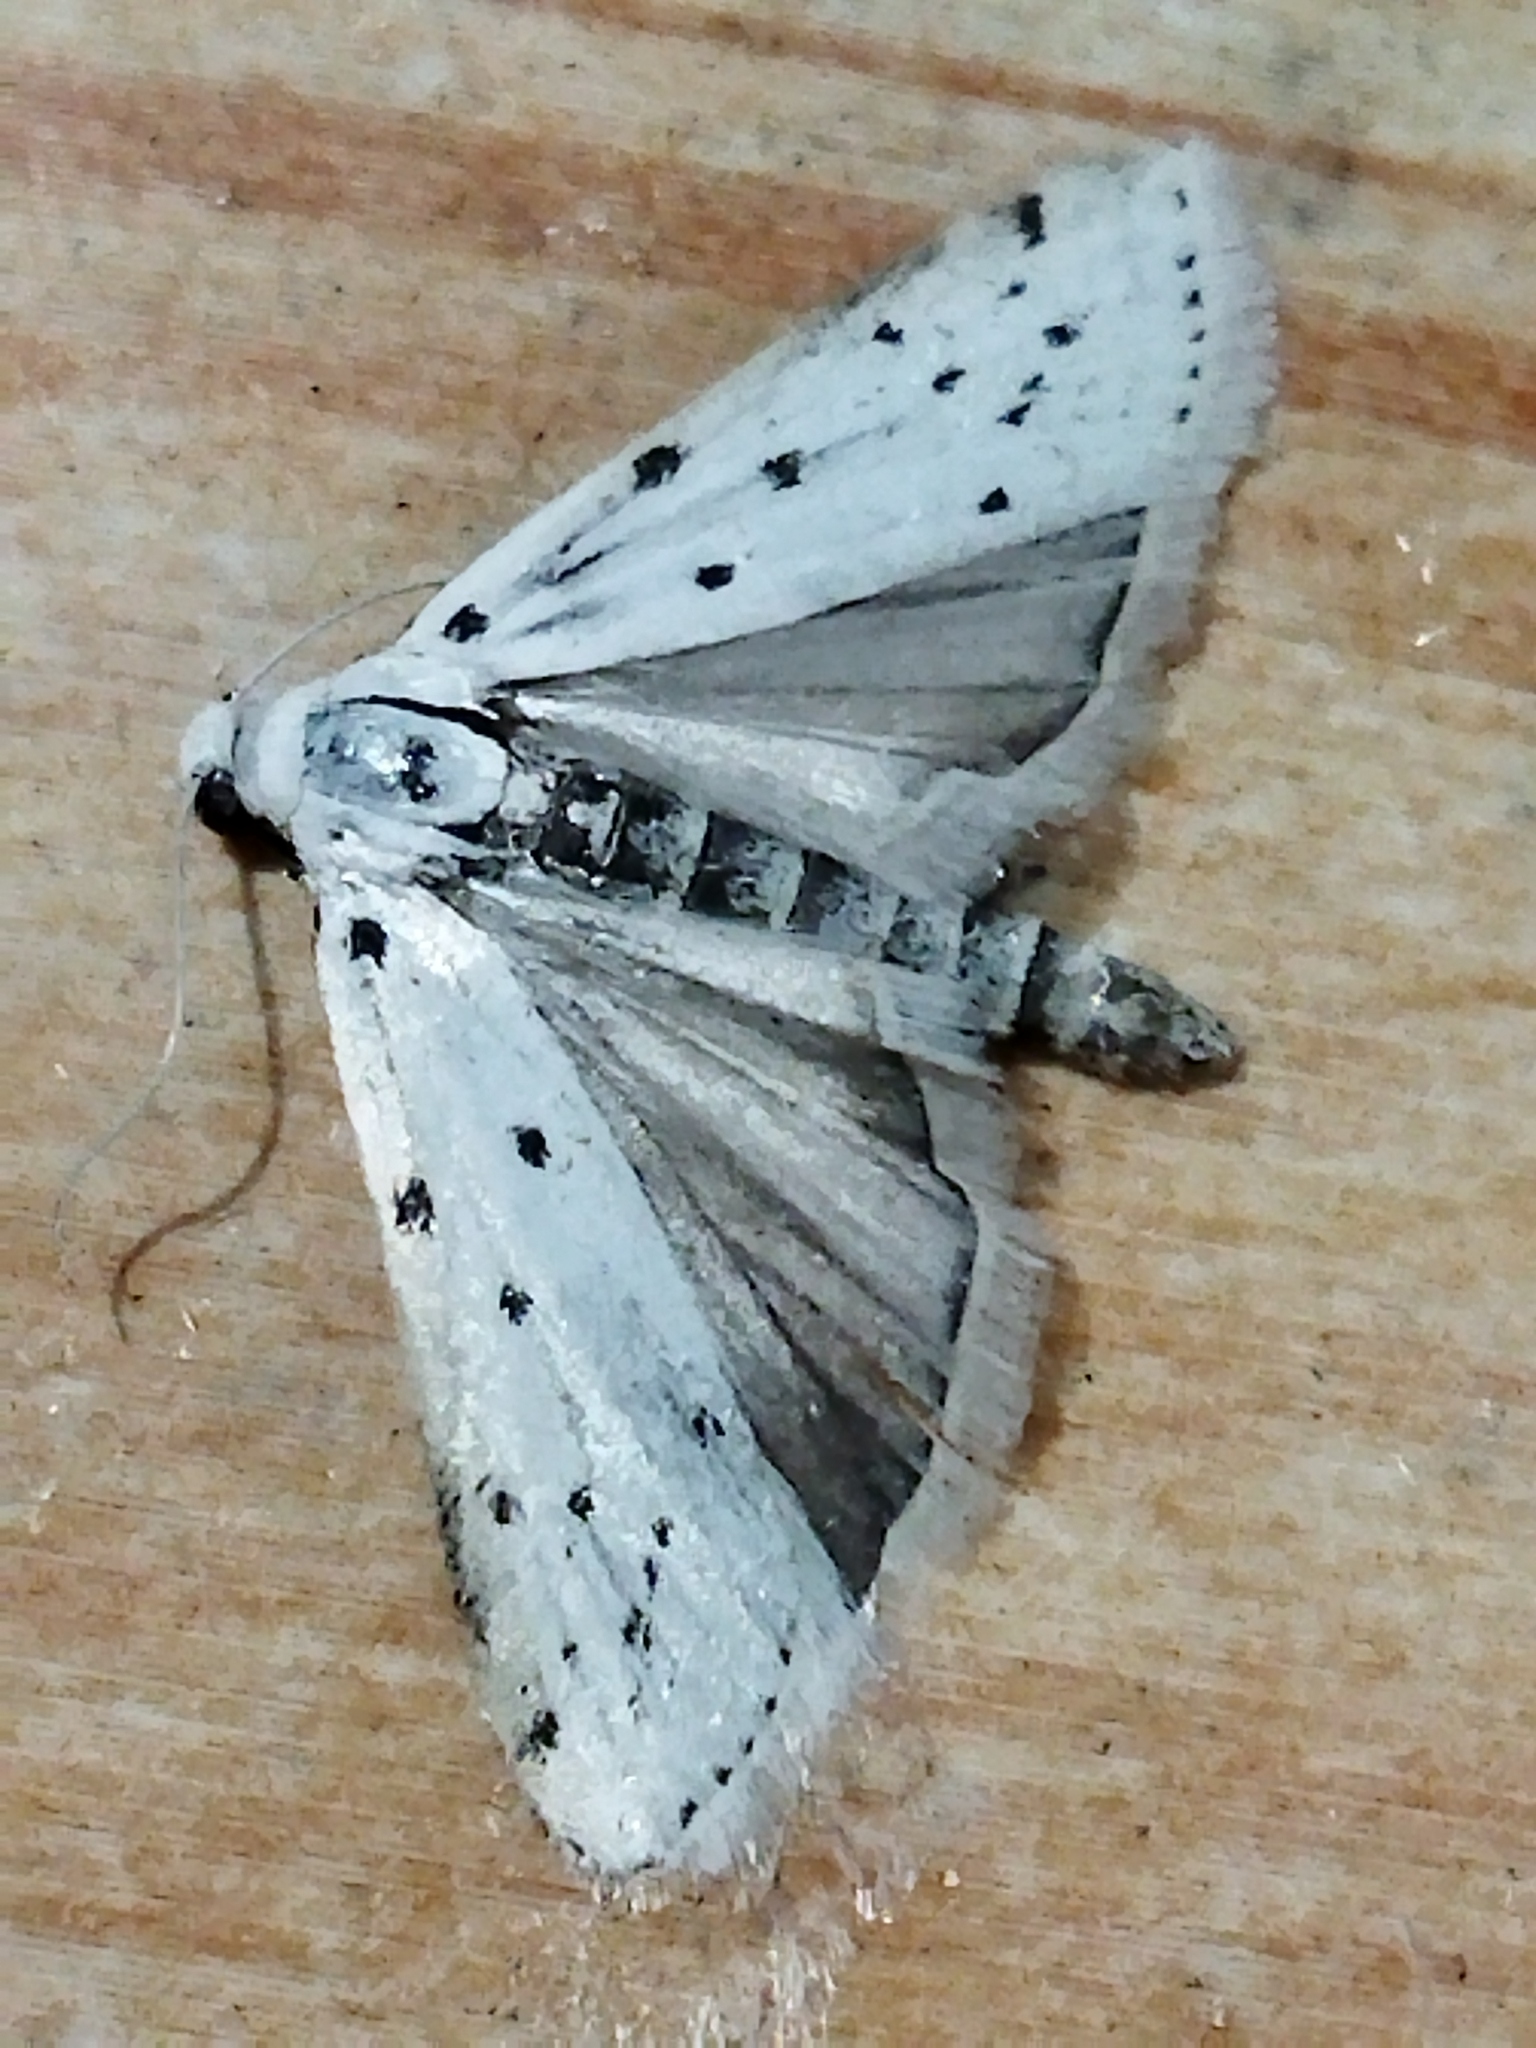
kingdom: Animalia
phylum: Arthropoda
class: Insecta
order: Lepidoptera
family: Pyralidae
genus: Myelois
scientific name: Myelois circumvoluta
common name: Thistle ermine
